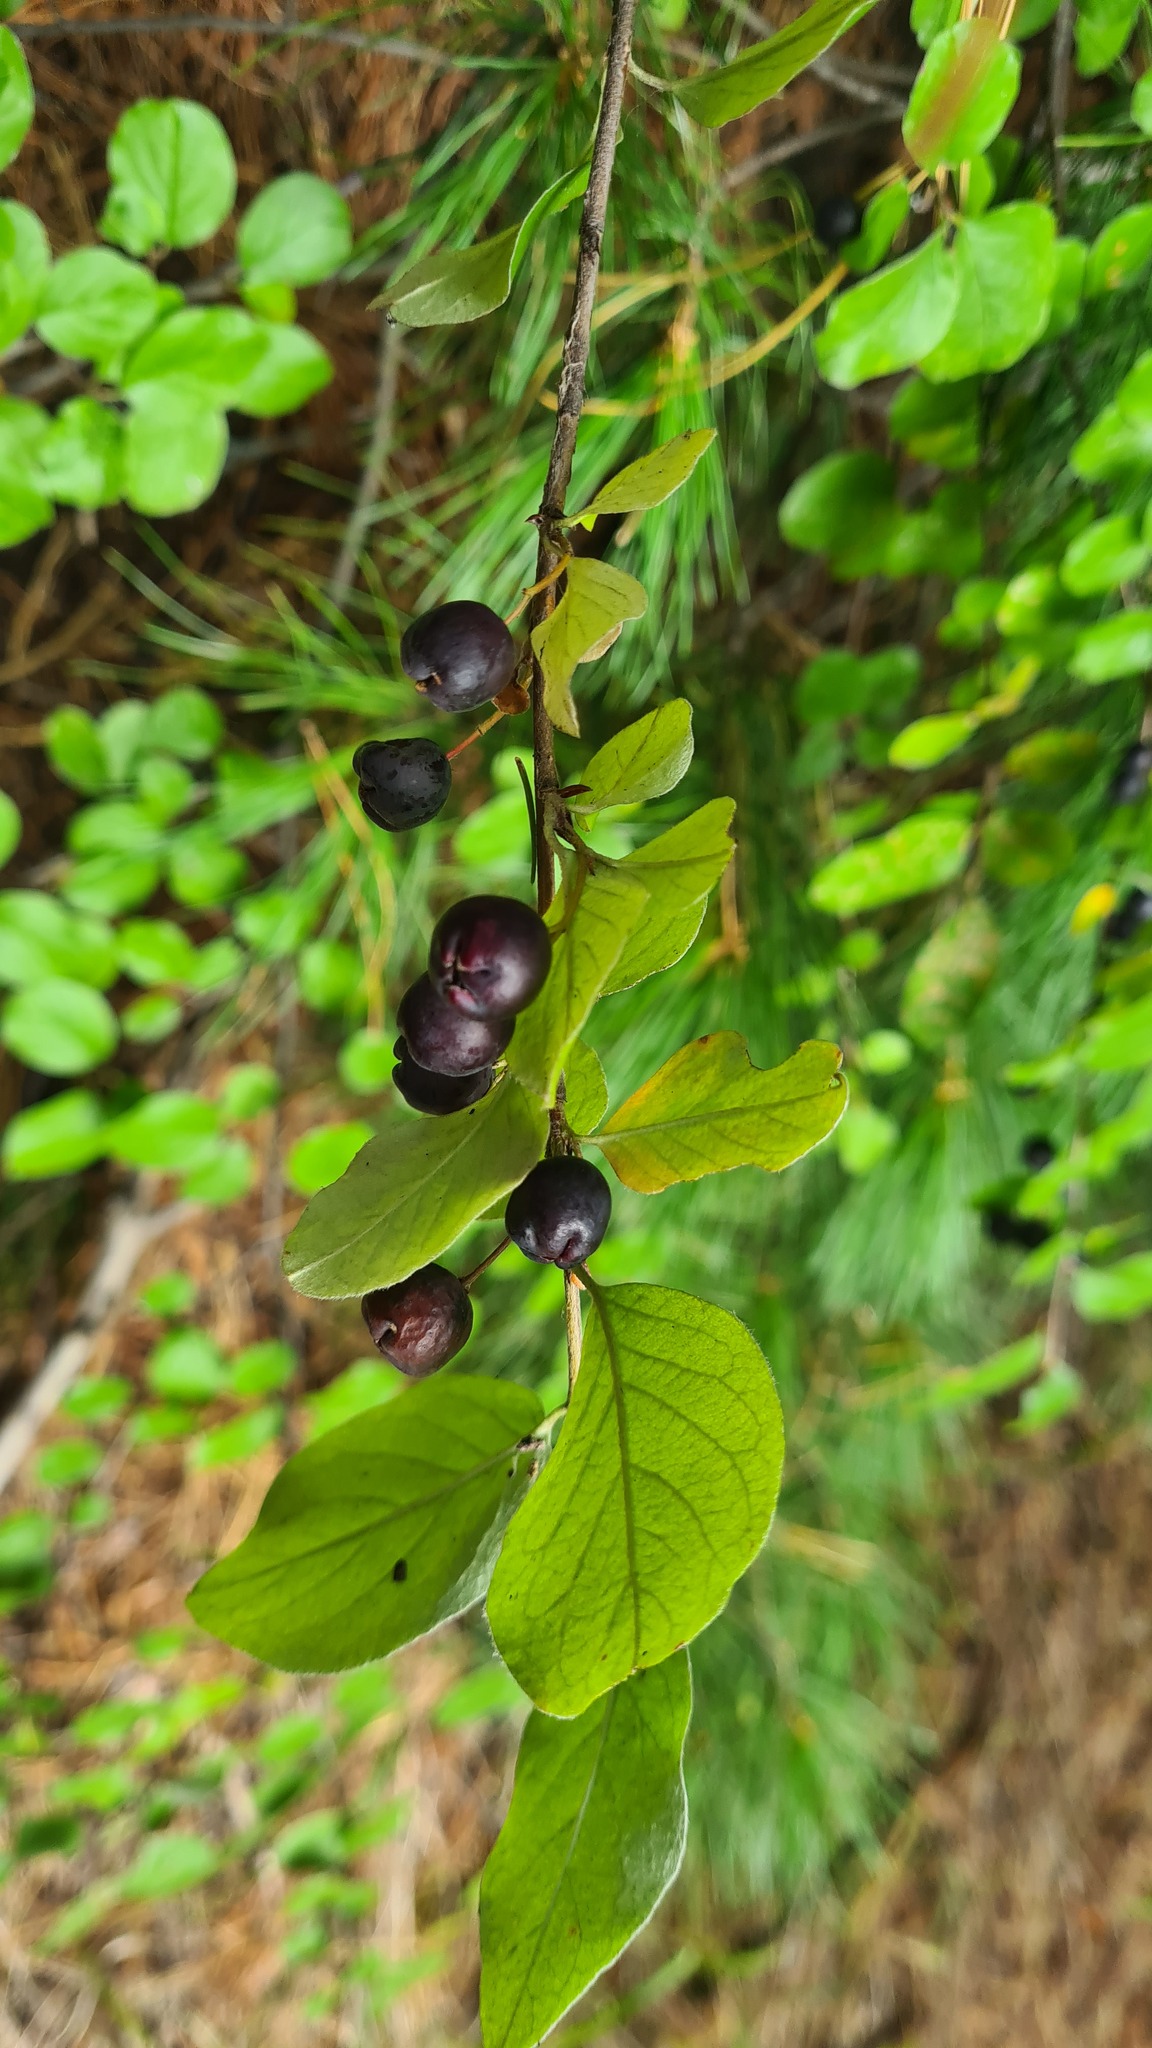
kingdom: Plantae
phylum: Tracheophyta
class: Magnoliopsida
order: Rosales
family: Rosaceae
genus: Cotoneaster
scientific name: Cotoneaster melanocarpus
